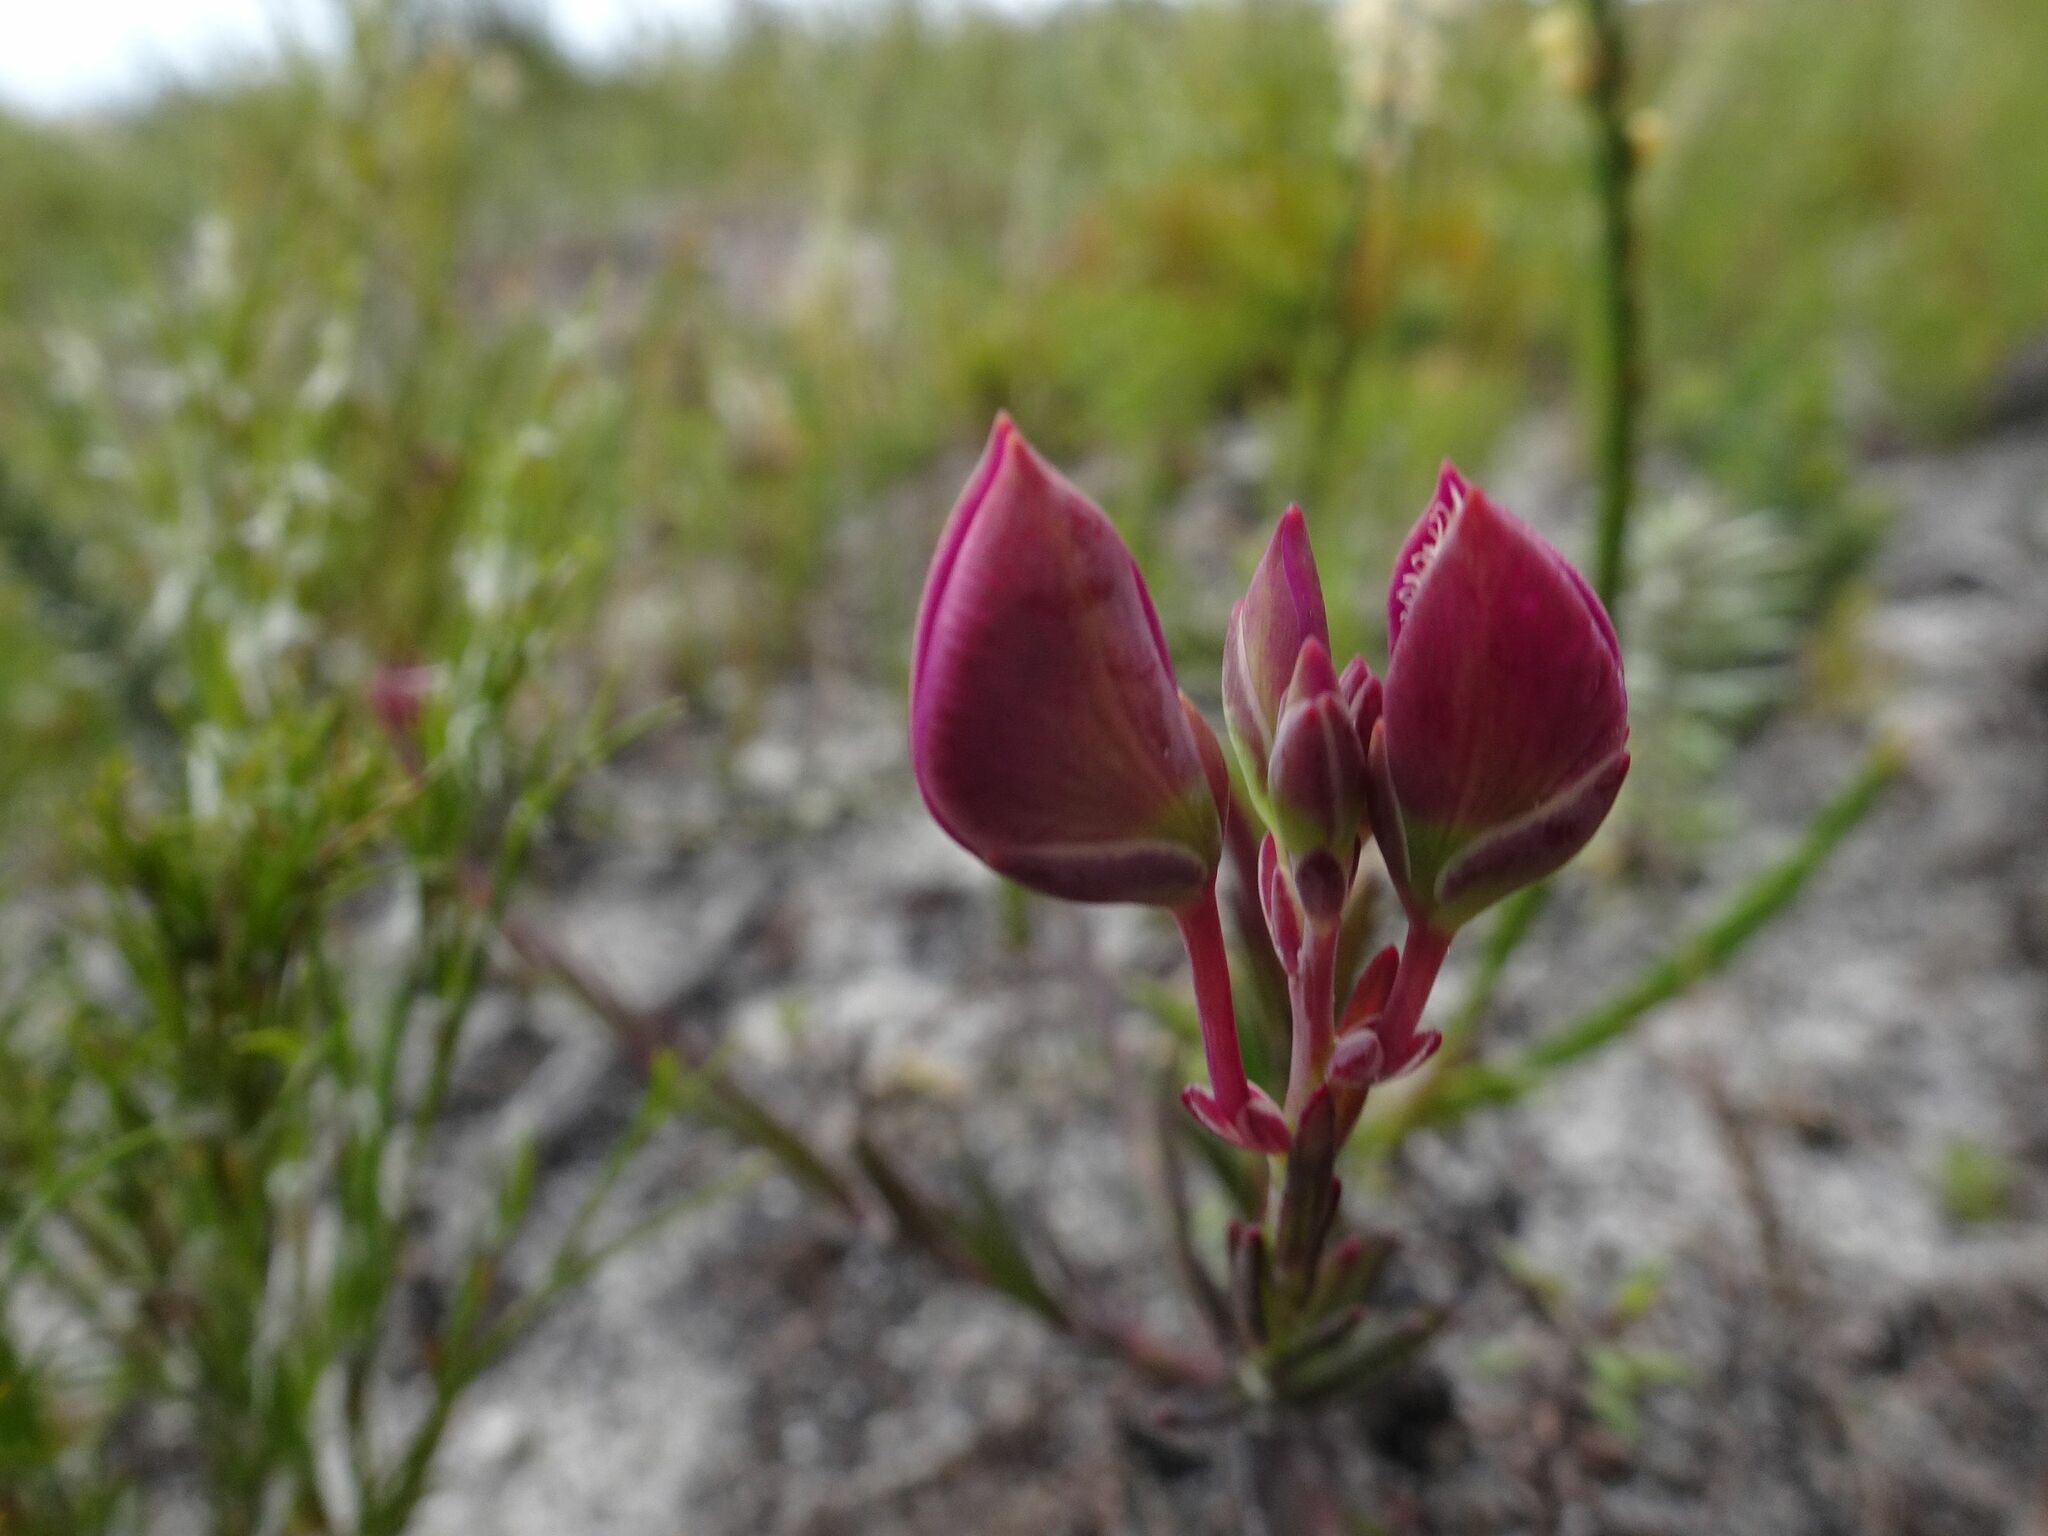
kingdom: Plantae
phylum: Tracheophyta
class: Magnoliopsida
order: Fabales
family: Polygalaceae
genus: Polygala
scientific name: Polygala bracteolata
